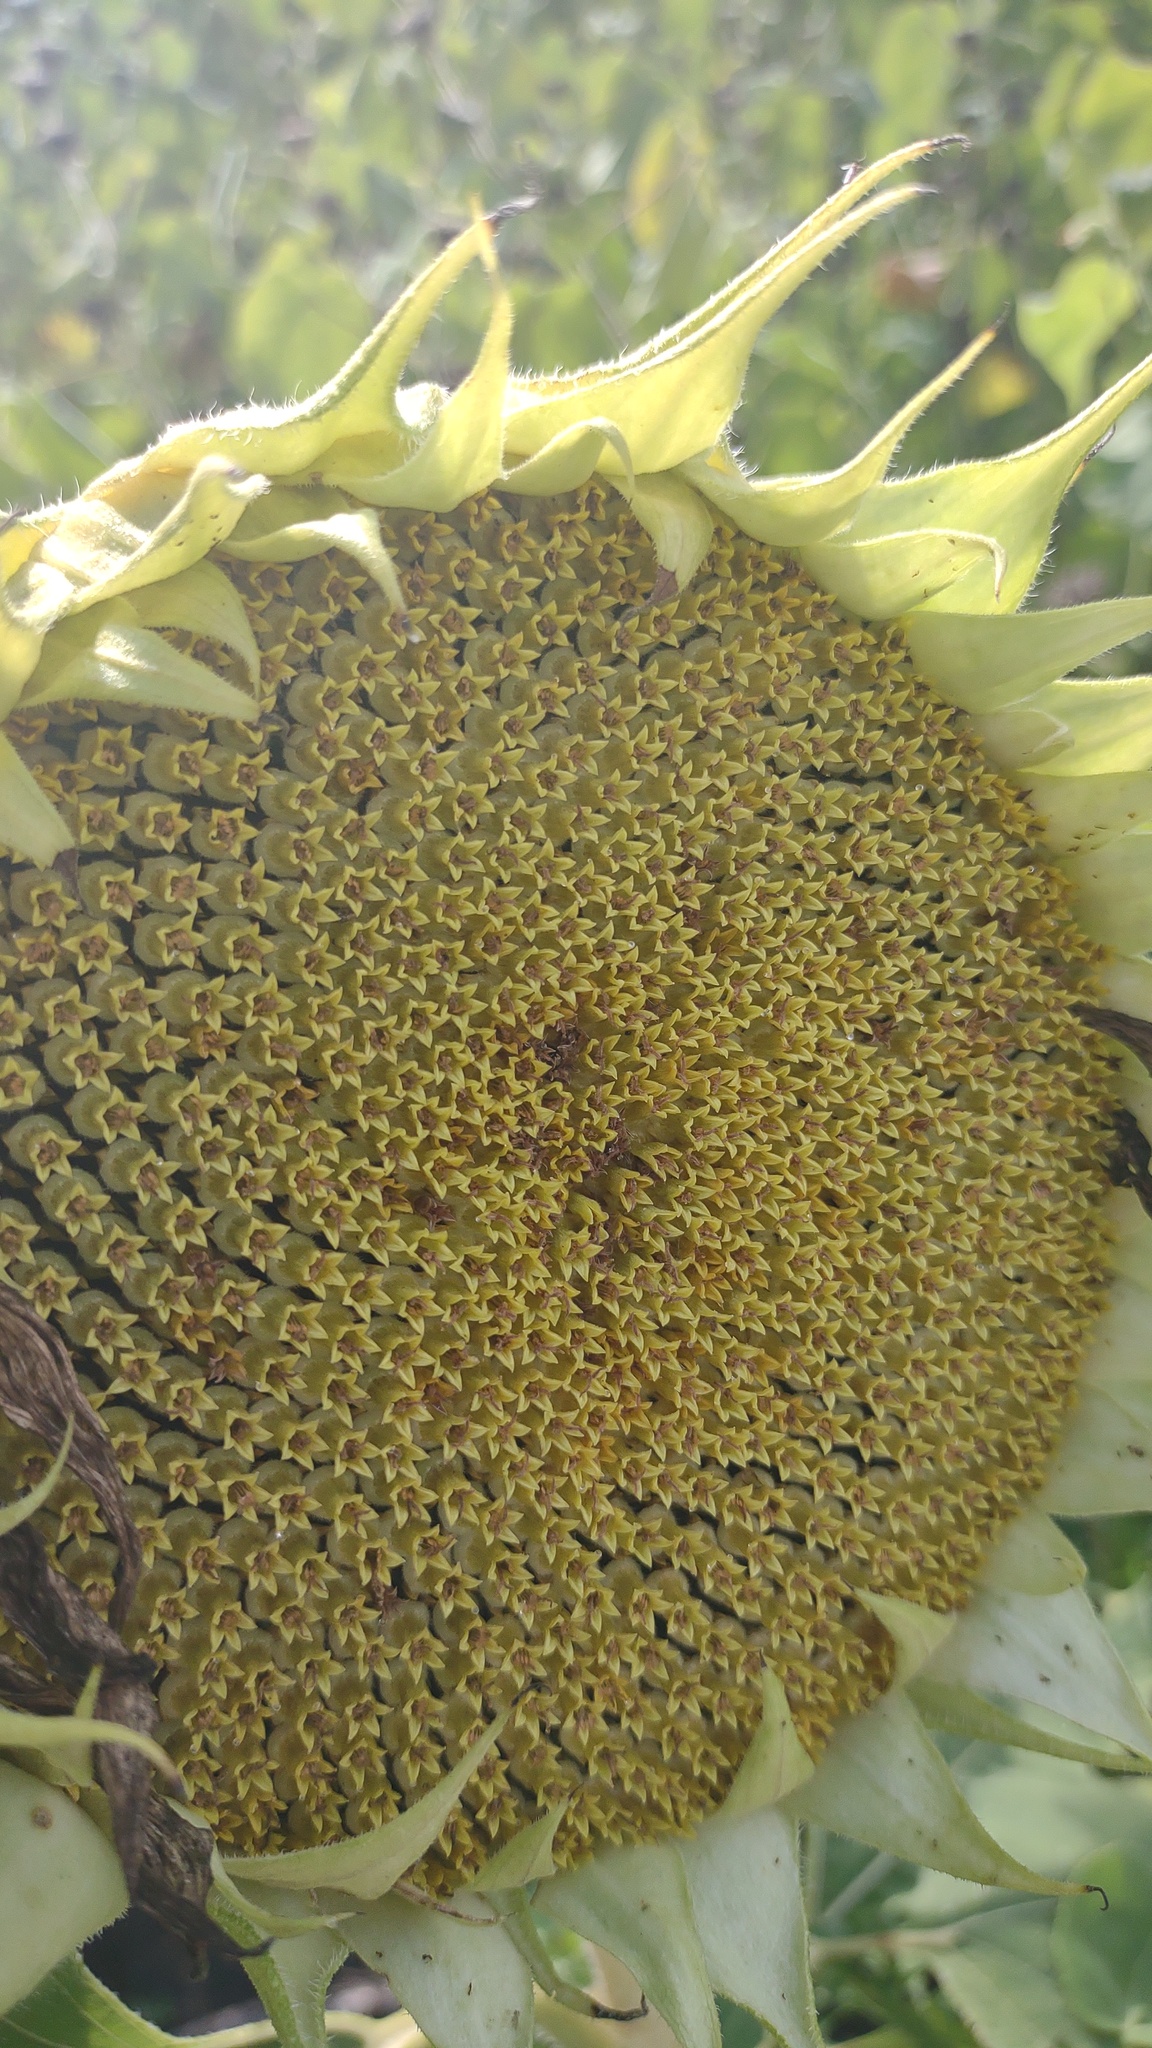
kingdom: Plantae
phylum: Tracheophyta
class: Magnoliopsida
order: Asterales
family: Asteraceae
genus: Helianthus
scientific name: Helianthus annuus
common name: Sunflower
